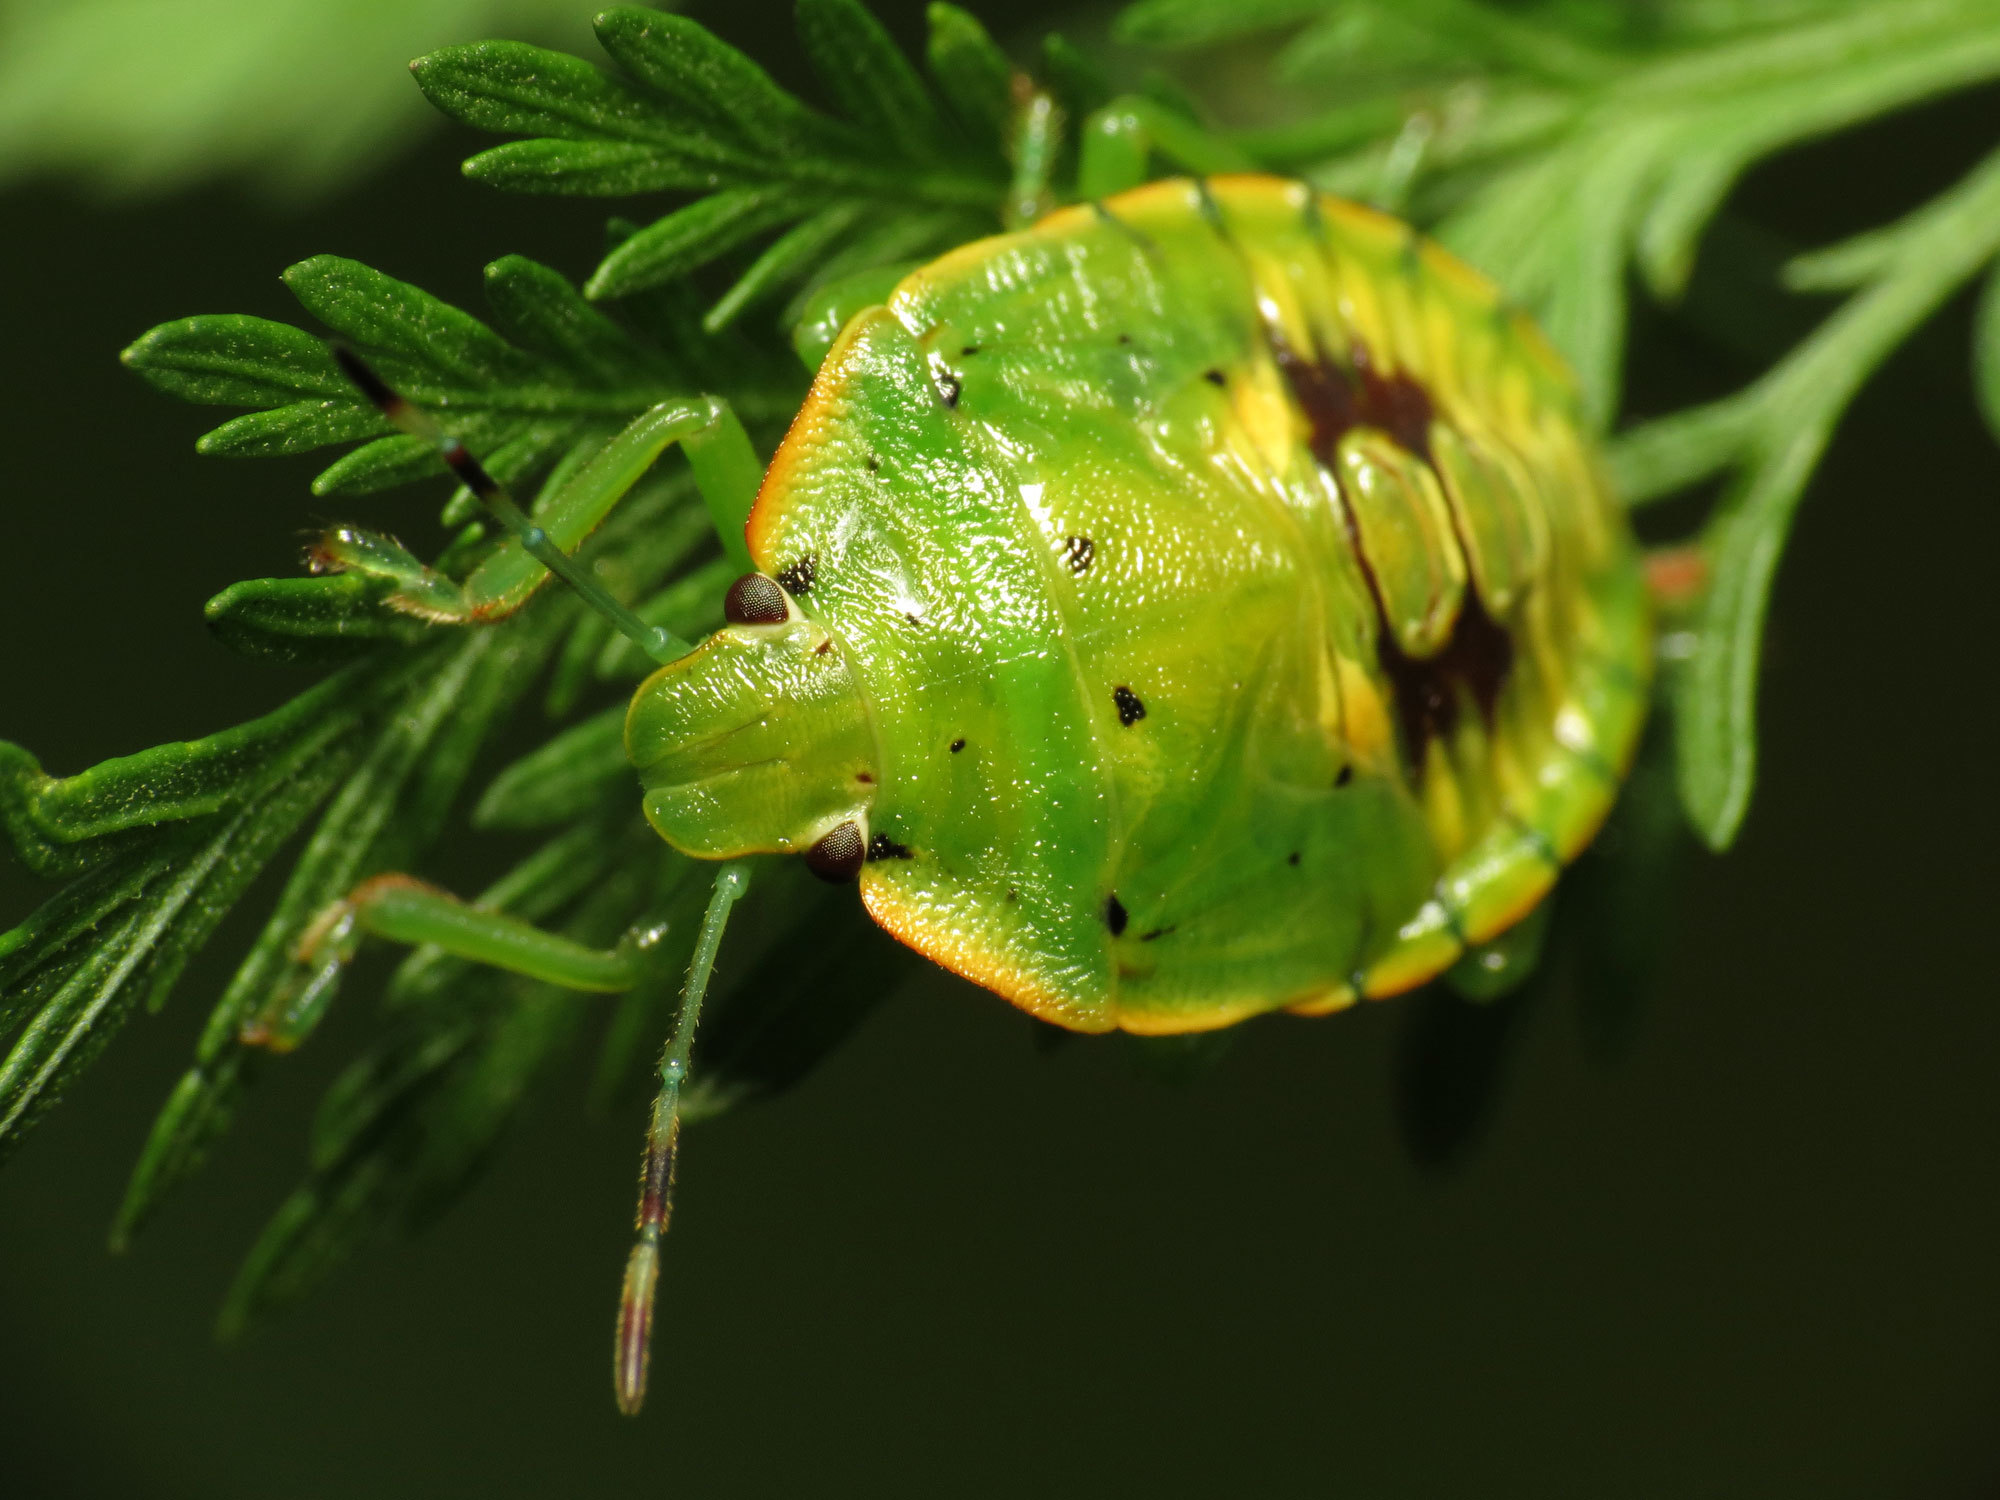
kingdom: Animalia
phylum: Arthropoda
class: Insecta
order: Hemiptera
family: Pentatomidae
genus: Chinavia
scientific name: Chinavia hilaris
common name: Green stink bug
